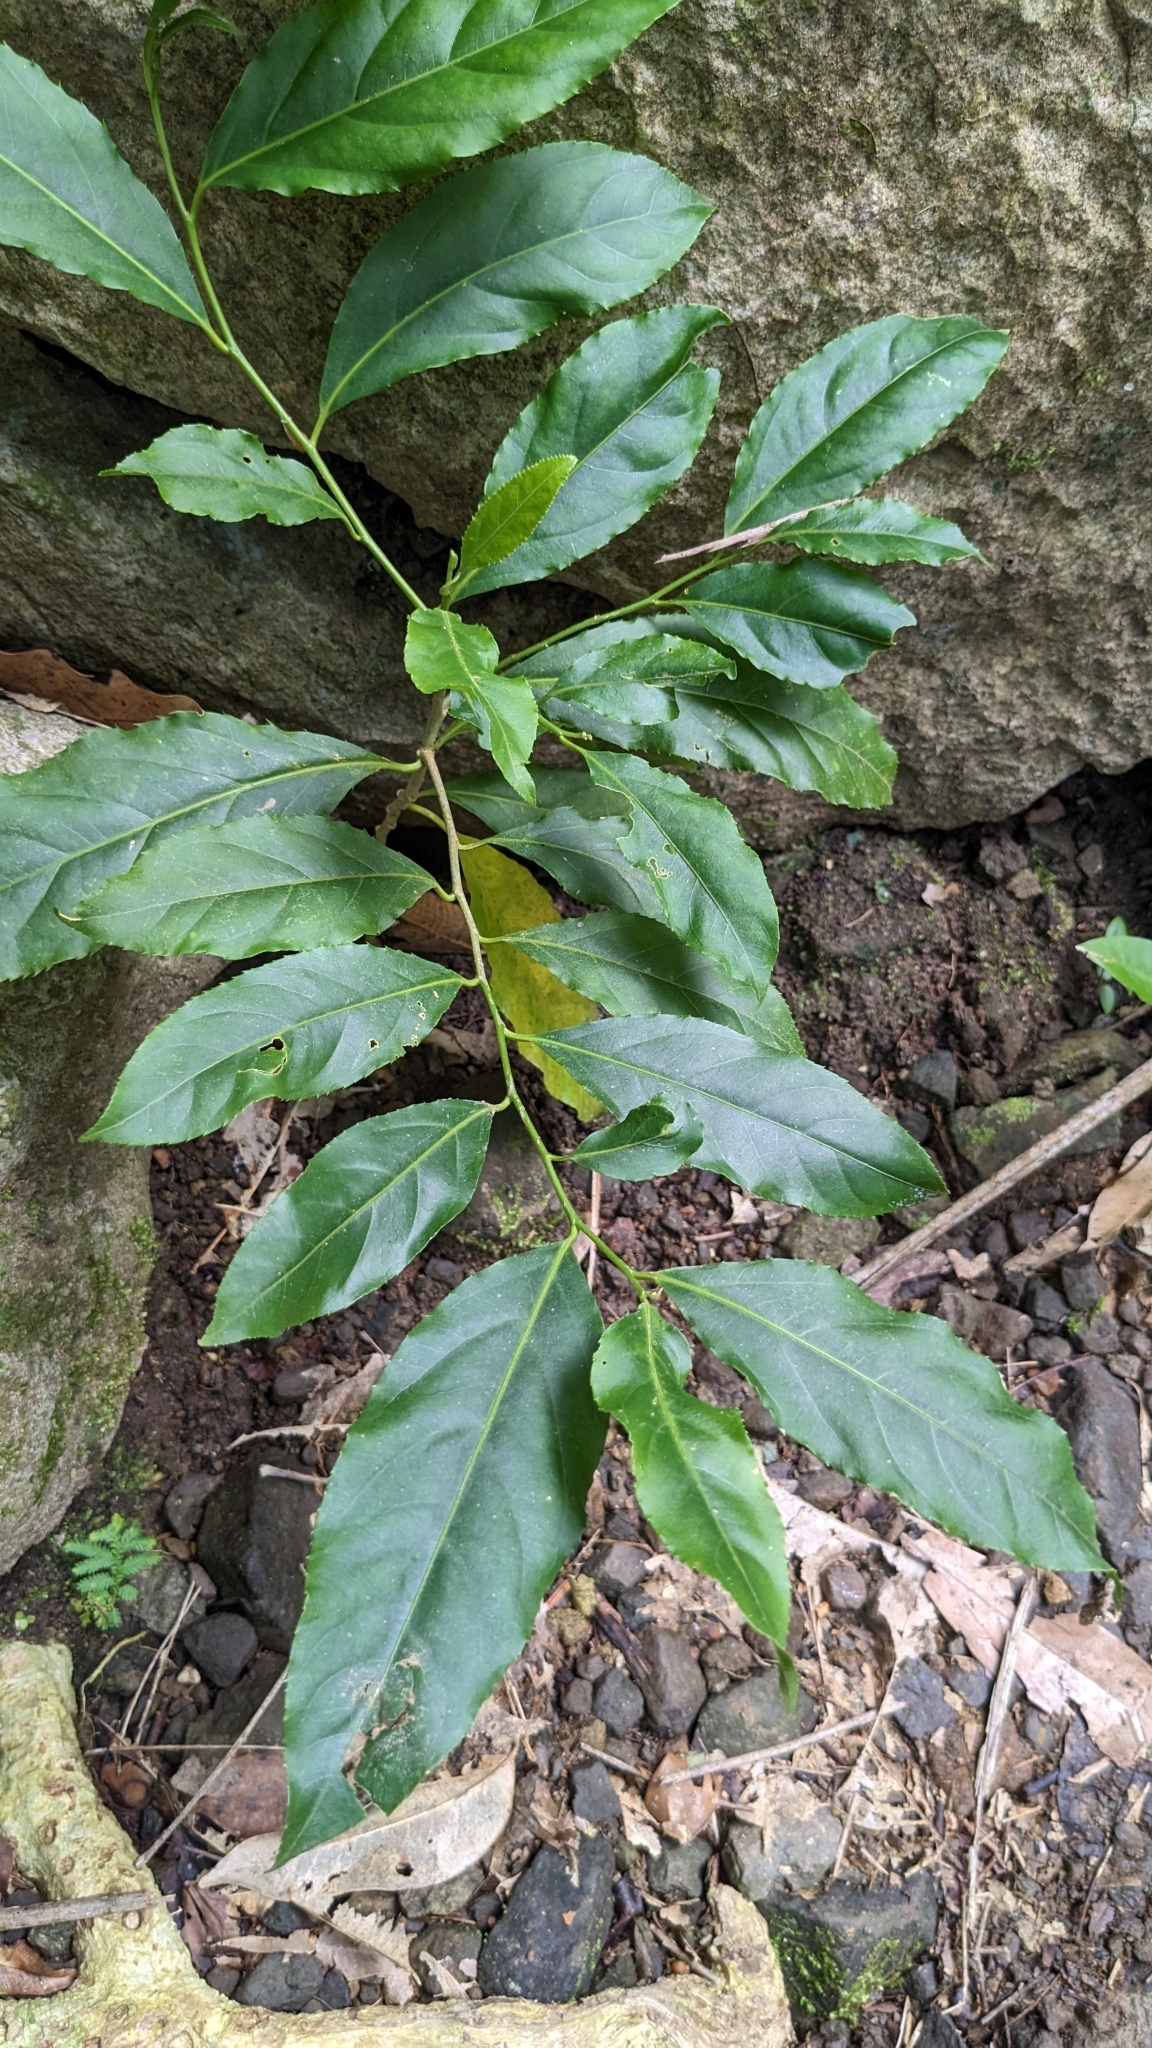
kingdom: Plantae
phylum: Tracheophyta
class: Magnoliopsida
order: Malpighiales
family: Salicaceae
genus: Casearia
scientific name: Casearia glomerata
